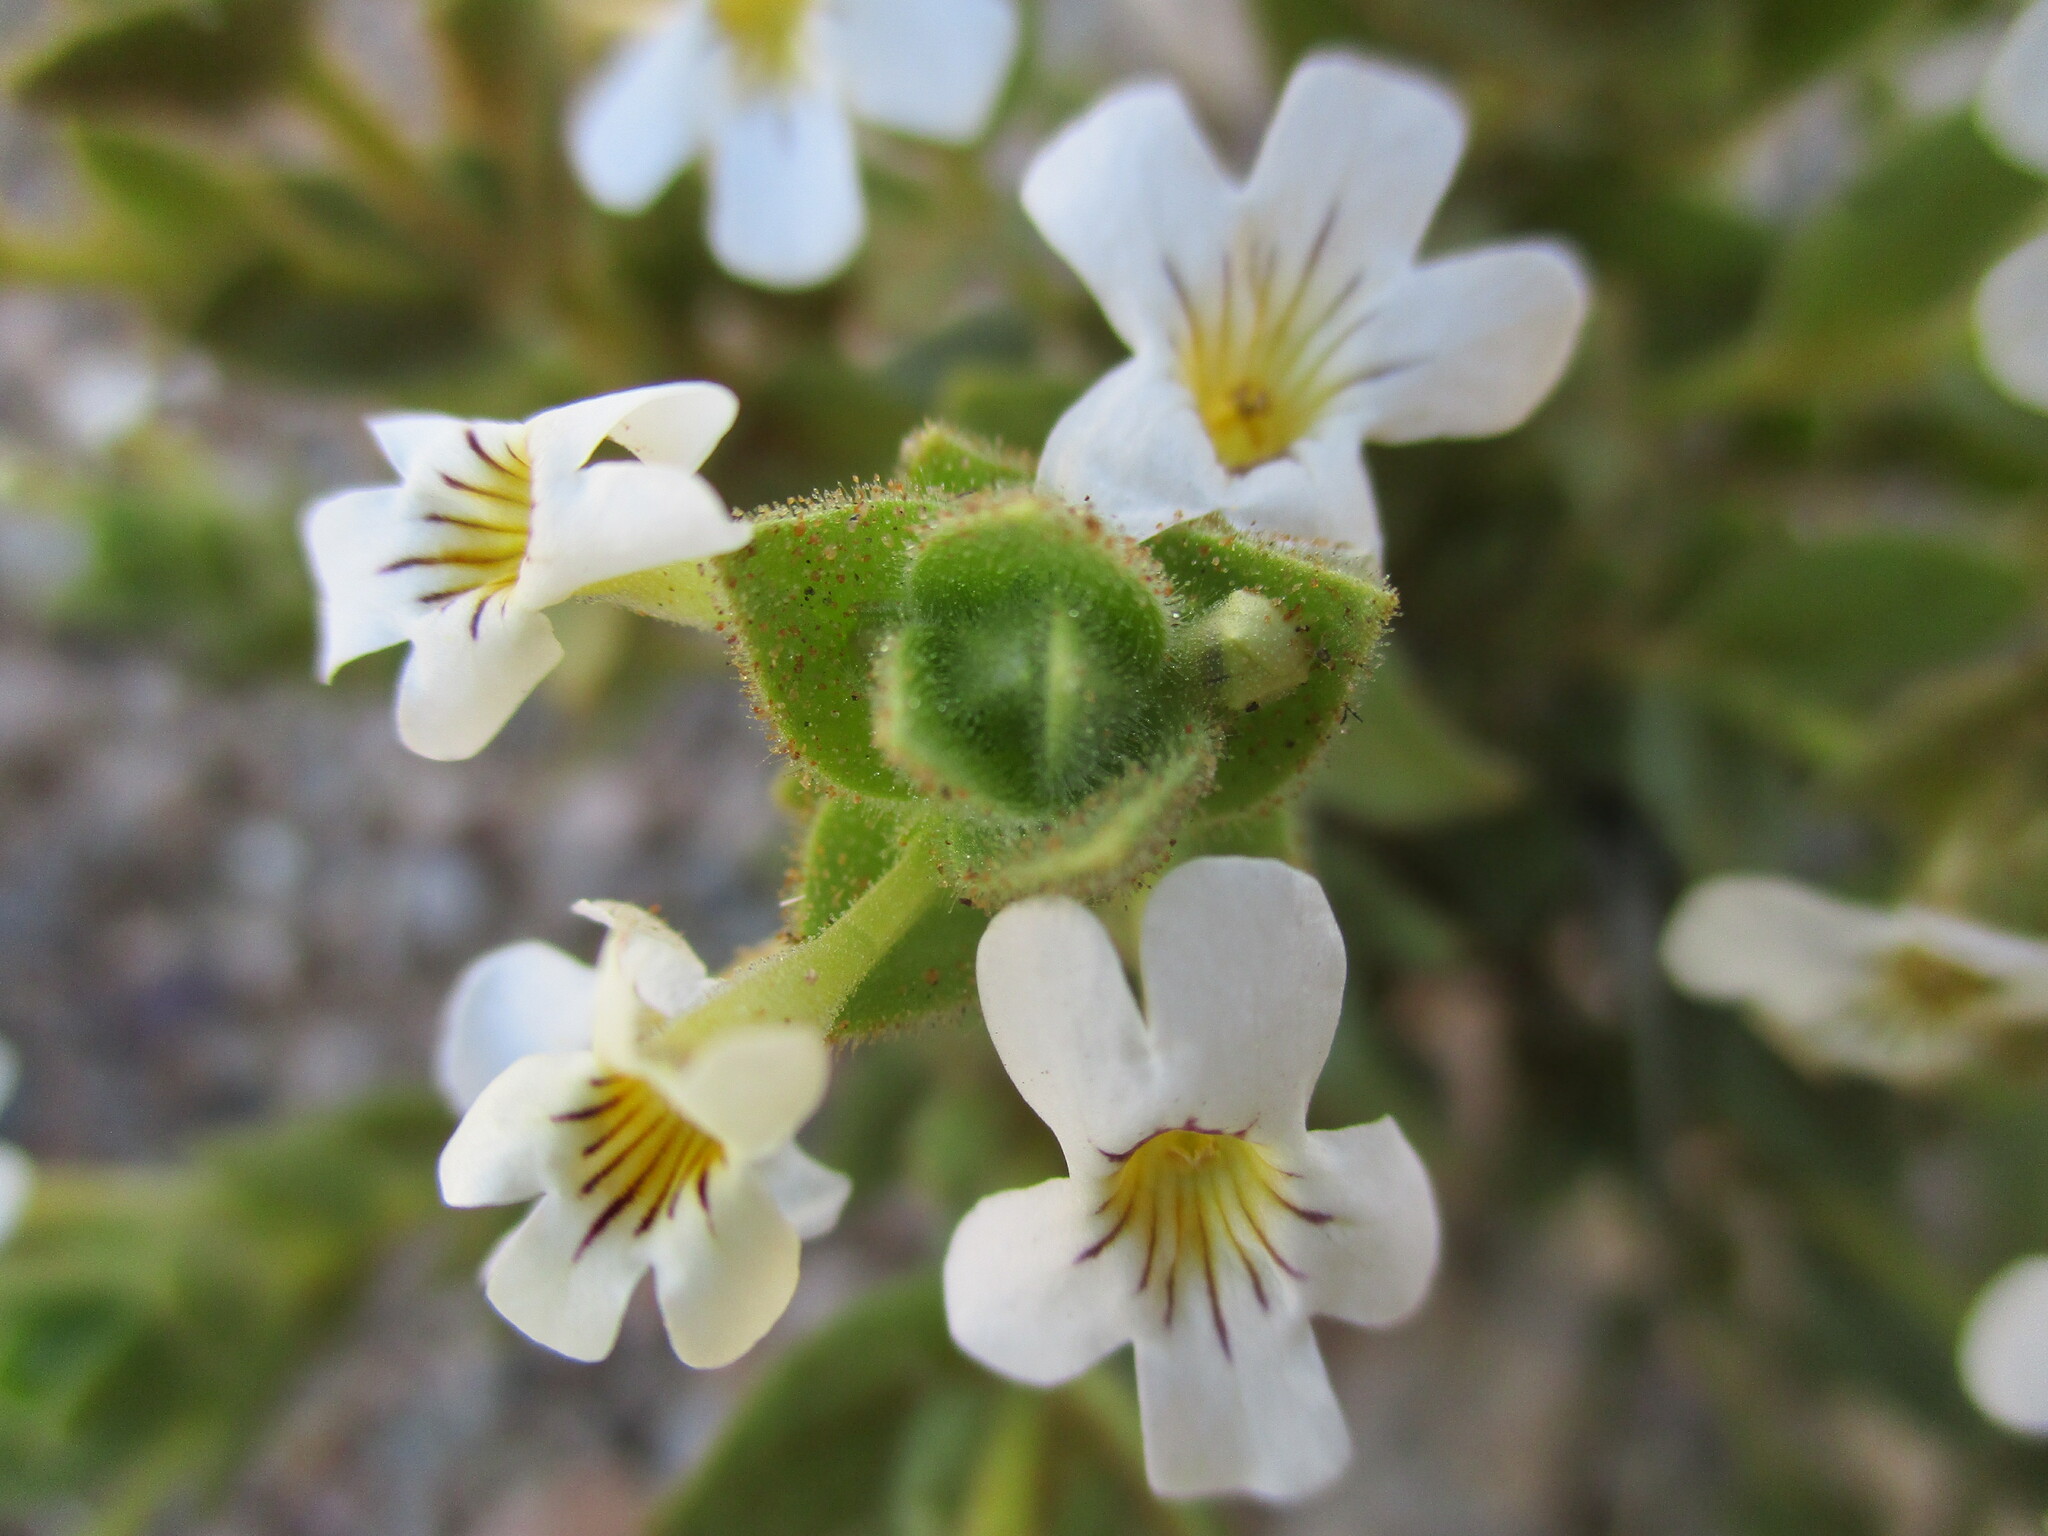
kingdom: Plantae
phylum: Tracheophyta
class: Magnoliopsida
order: Lamiales
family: Scrophulariaceae
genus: Jamesbrittenia
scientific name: Jamesbrittenia maxii
